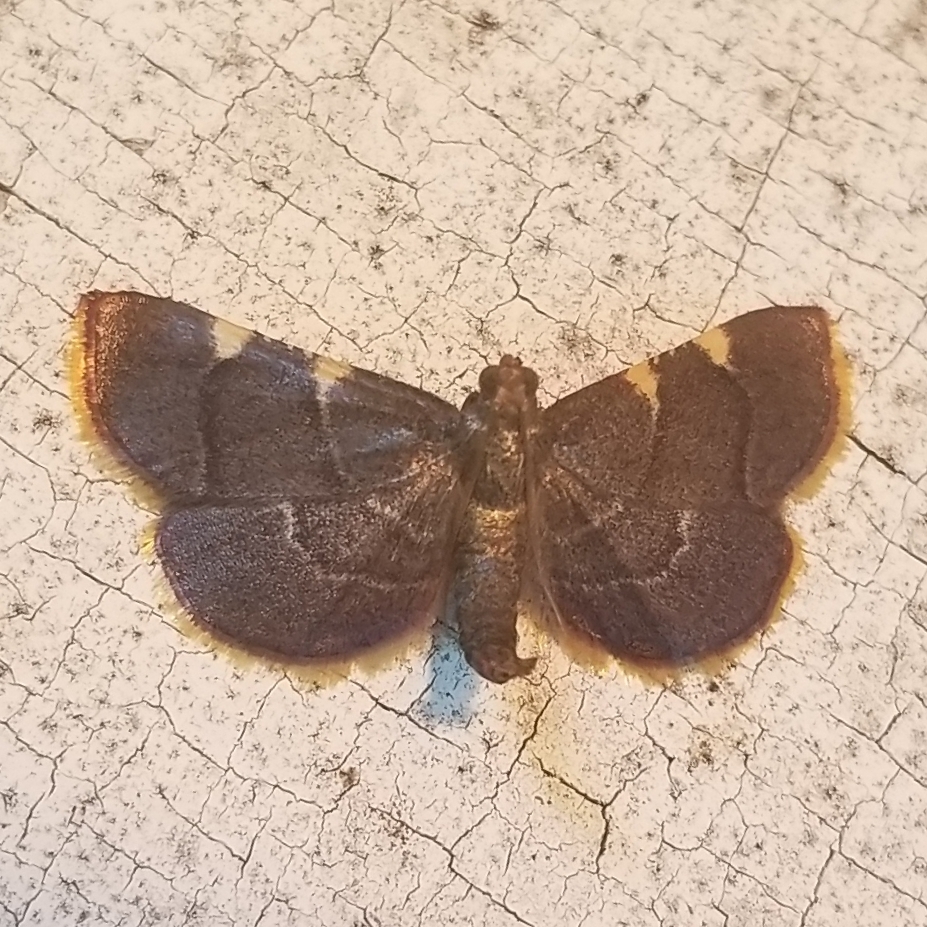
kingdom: Animalia
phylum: Arthropoda
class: Insecta
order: Lepidoptera
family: Pyralidae
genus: Hypsopygia
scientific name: Hypsopygia olinalis
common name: Yellow-fringed dolichomia moth
